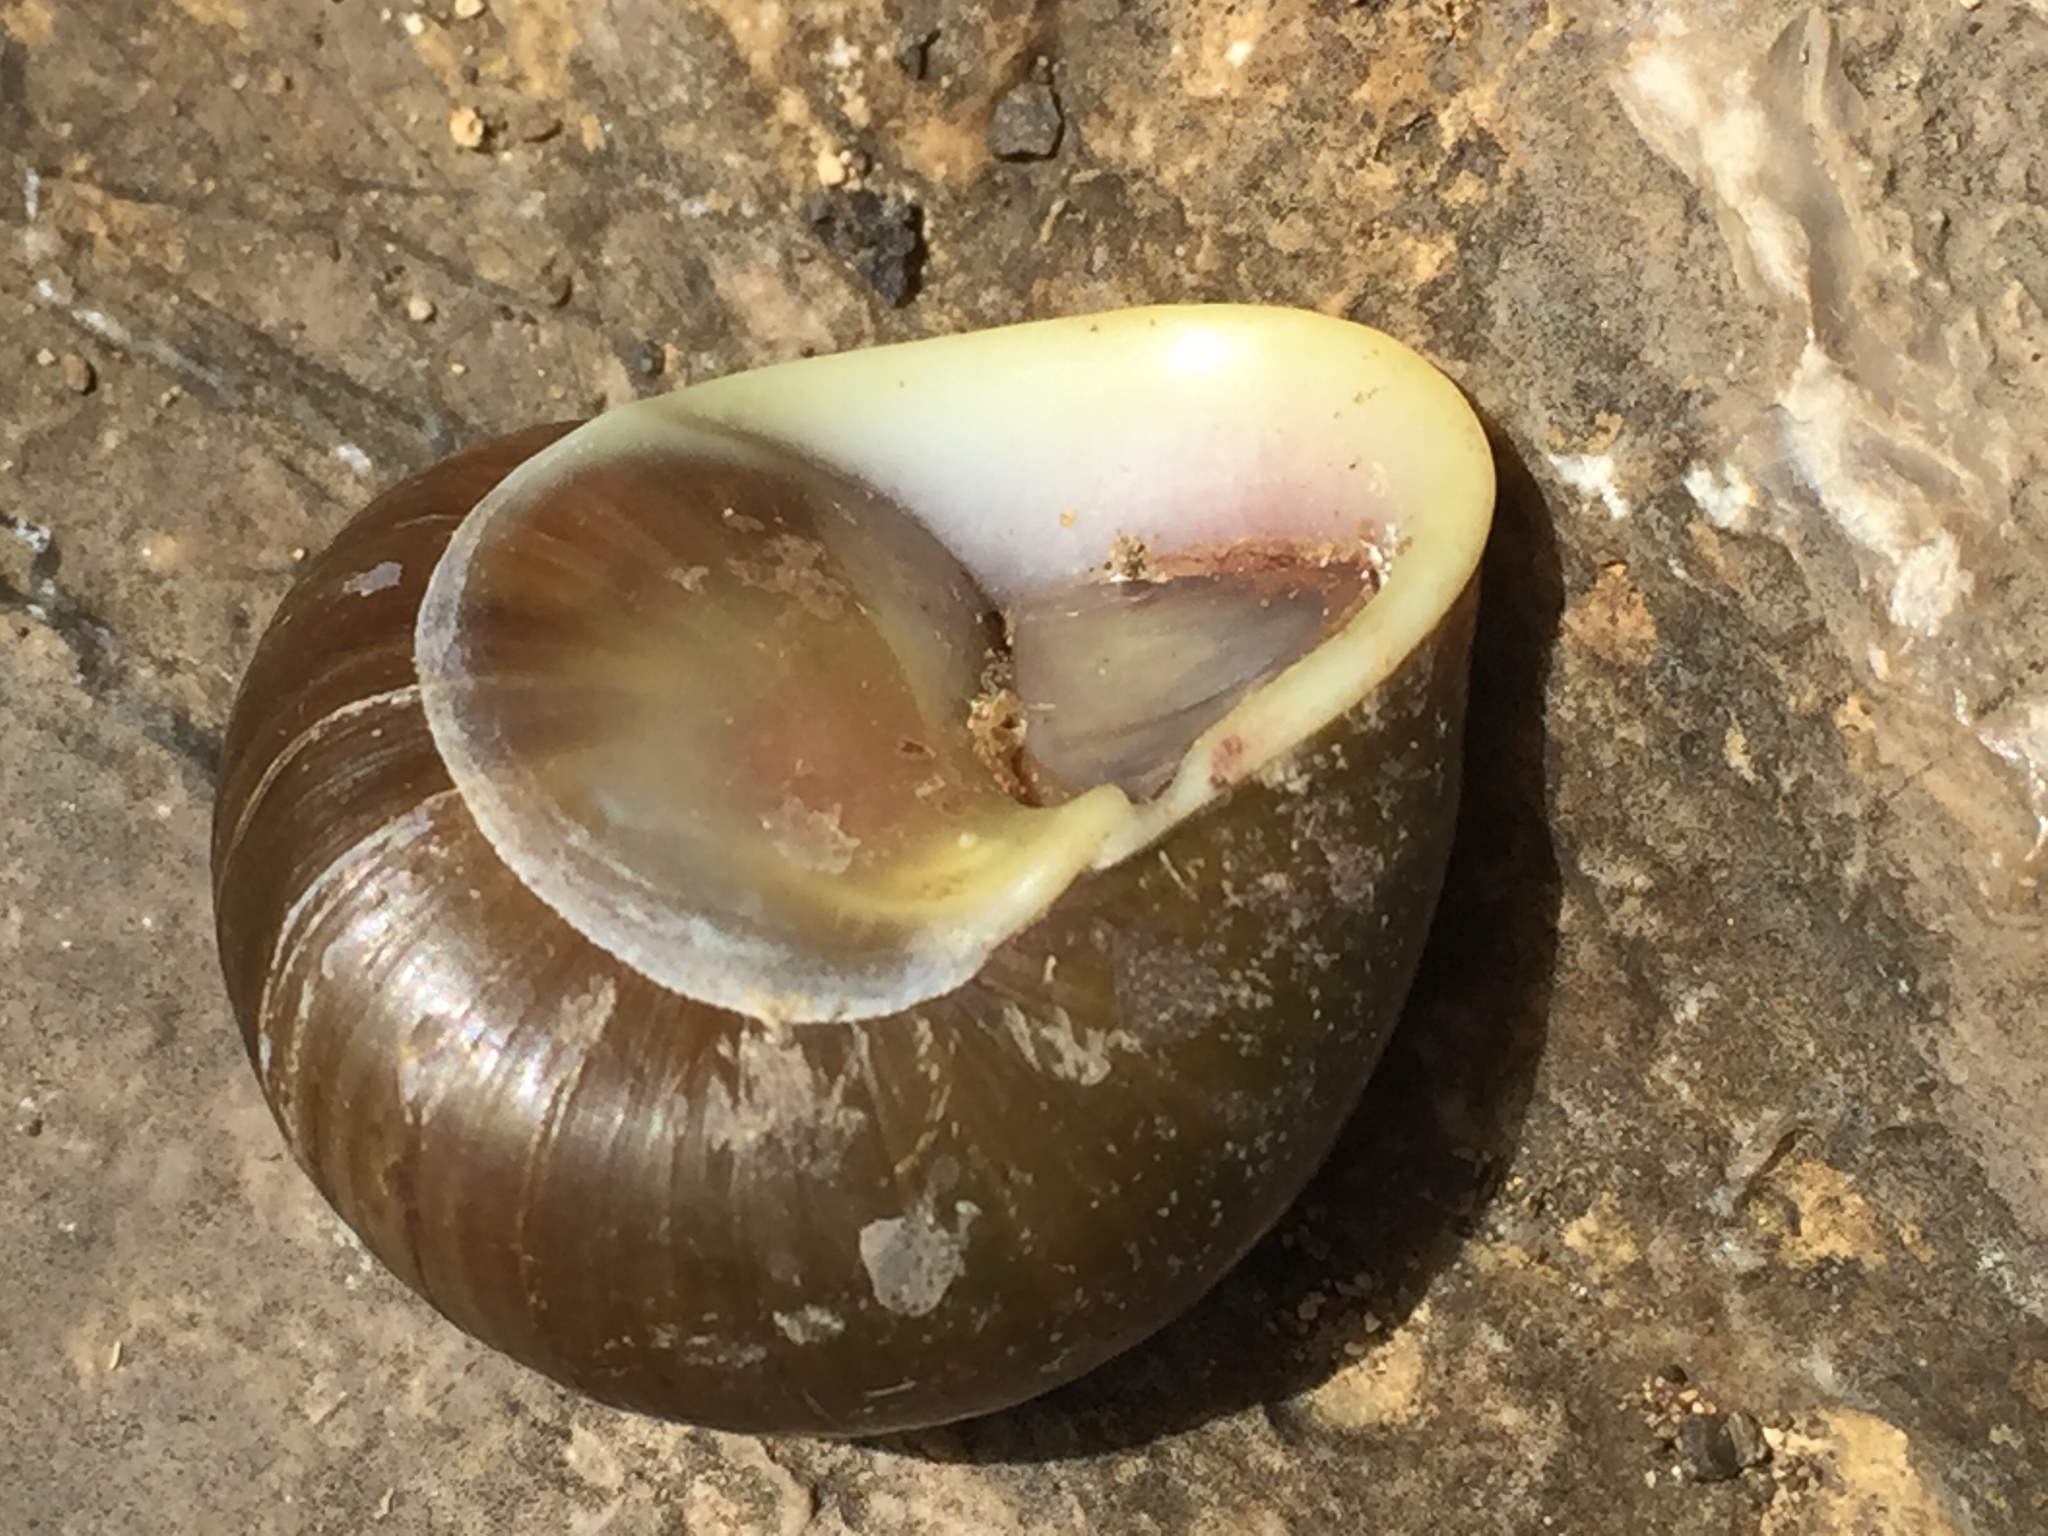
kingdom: Animalia
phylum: Mollusca
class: Gastropoda
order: Cycloneritida
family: Helicinidae
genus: Emoda
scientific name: Emoda sagraiana
